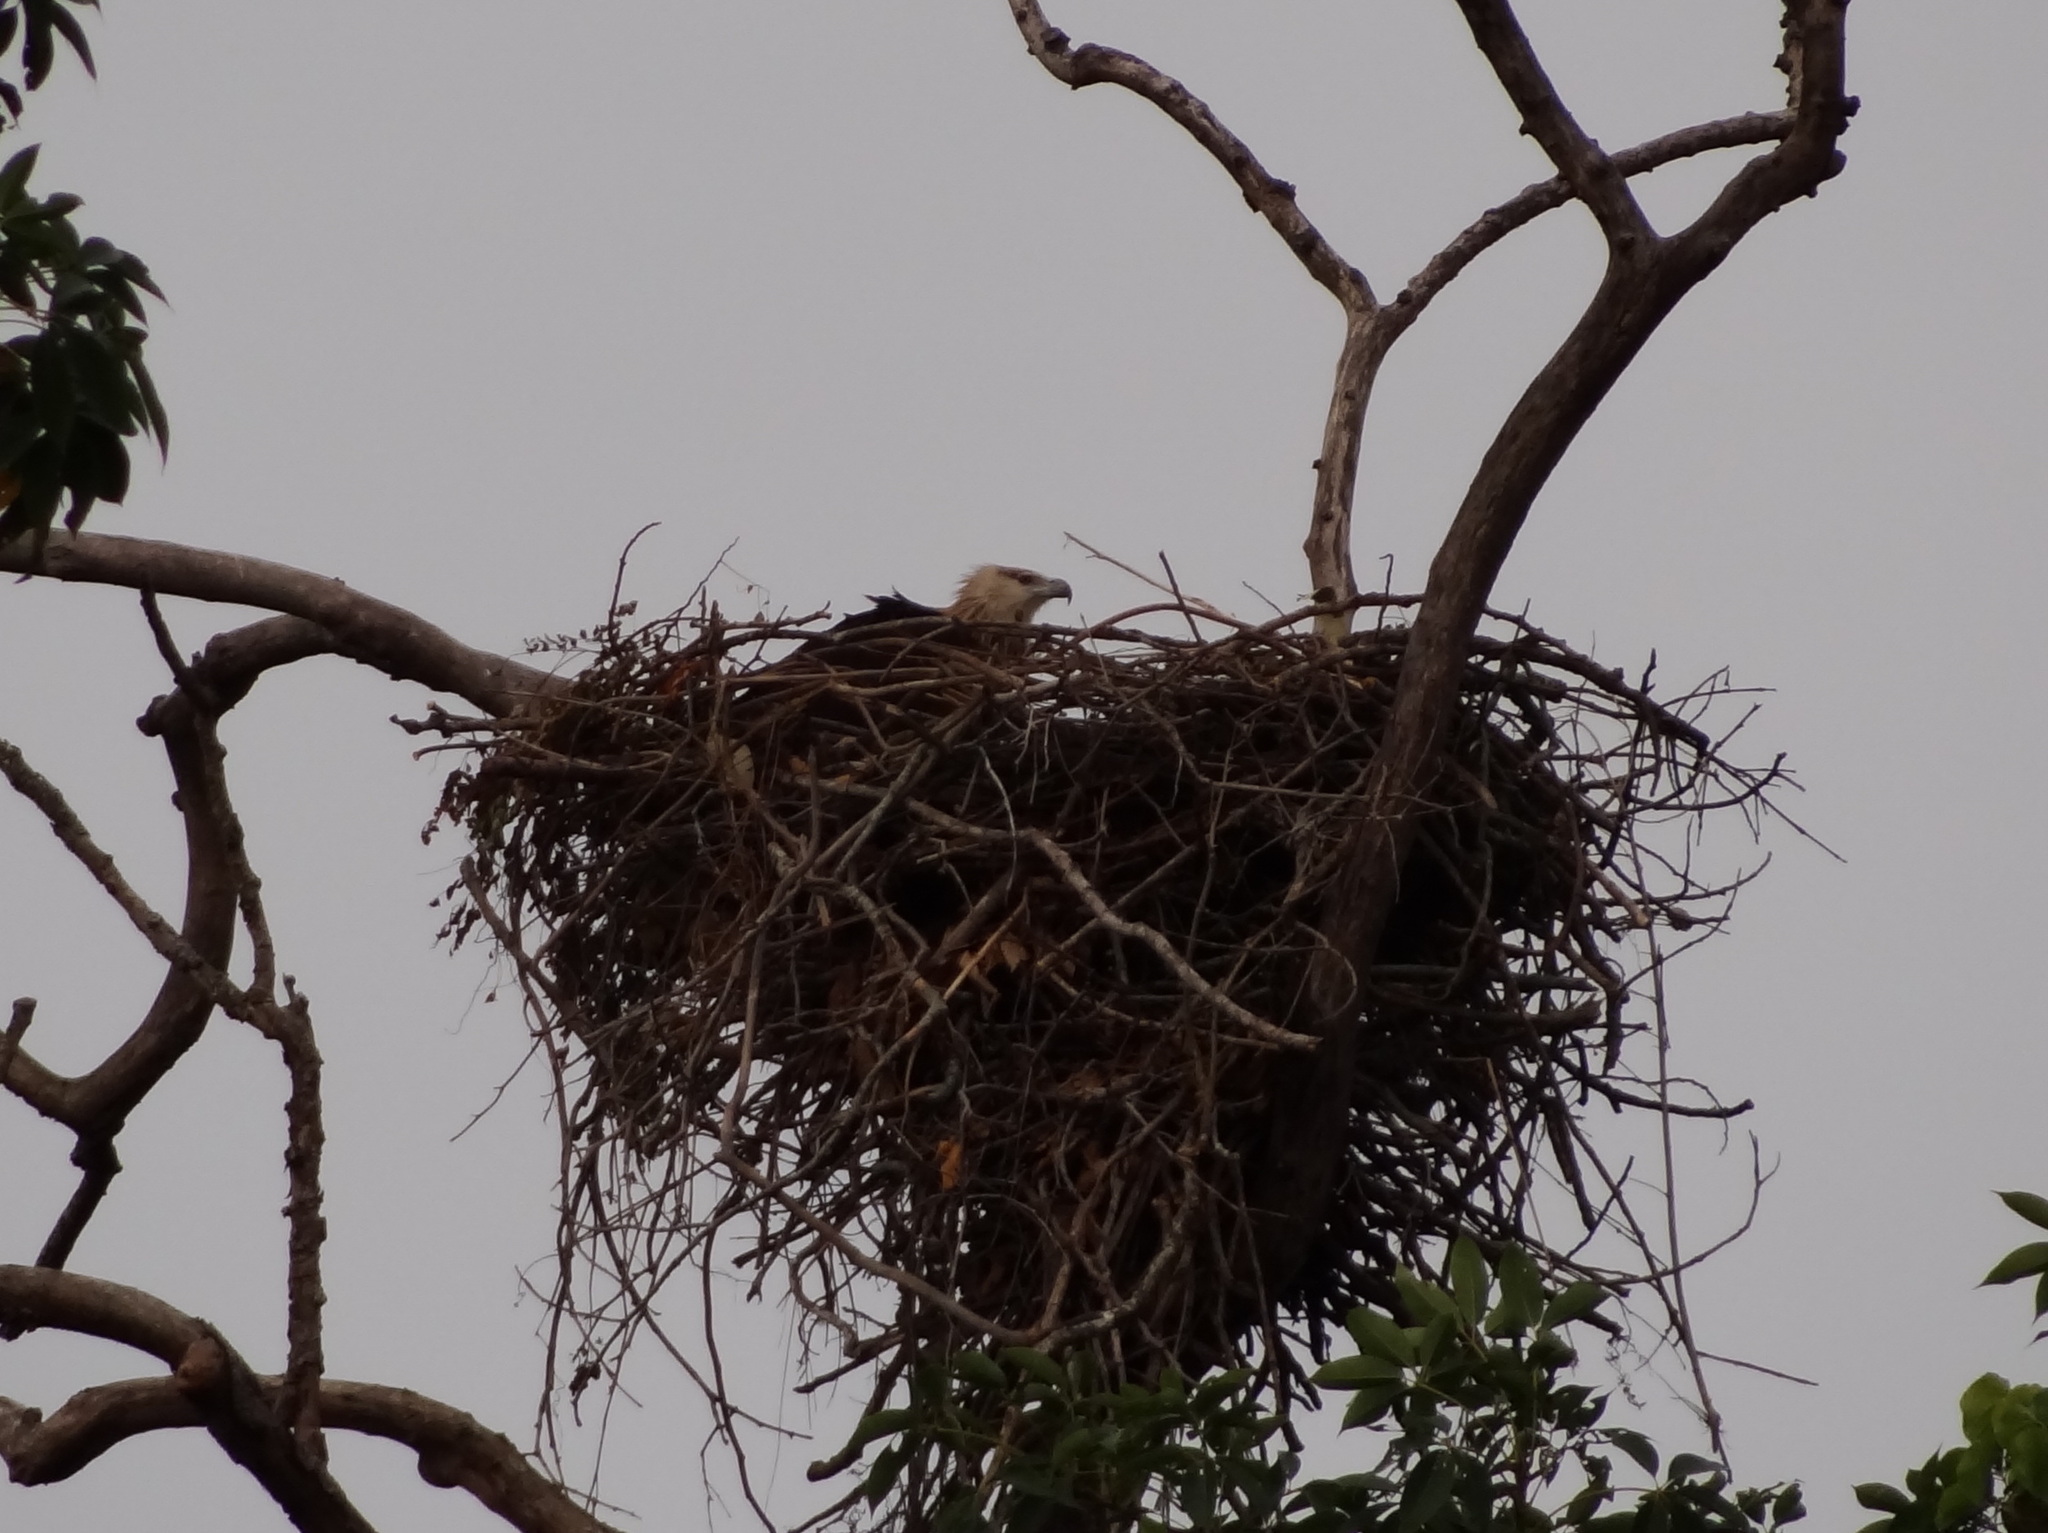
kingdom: Animalia
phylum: Chordata
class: Aves
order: Accipitriformes
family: Accipitridae
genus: Haliaeetus
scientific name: Haliaeetus leucoryphus
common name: Pallas's fish eagle
